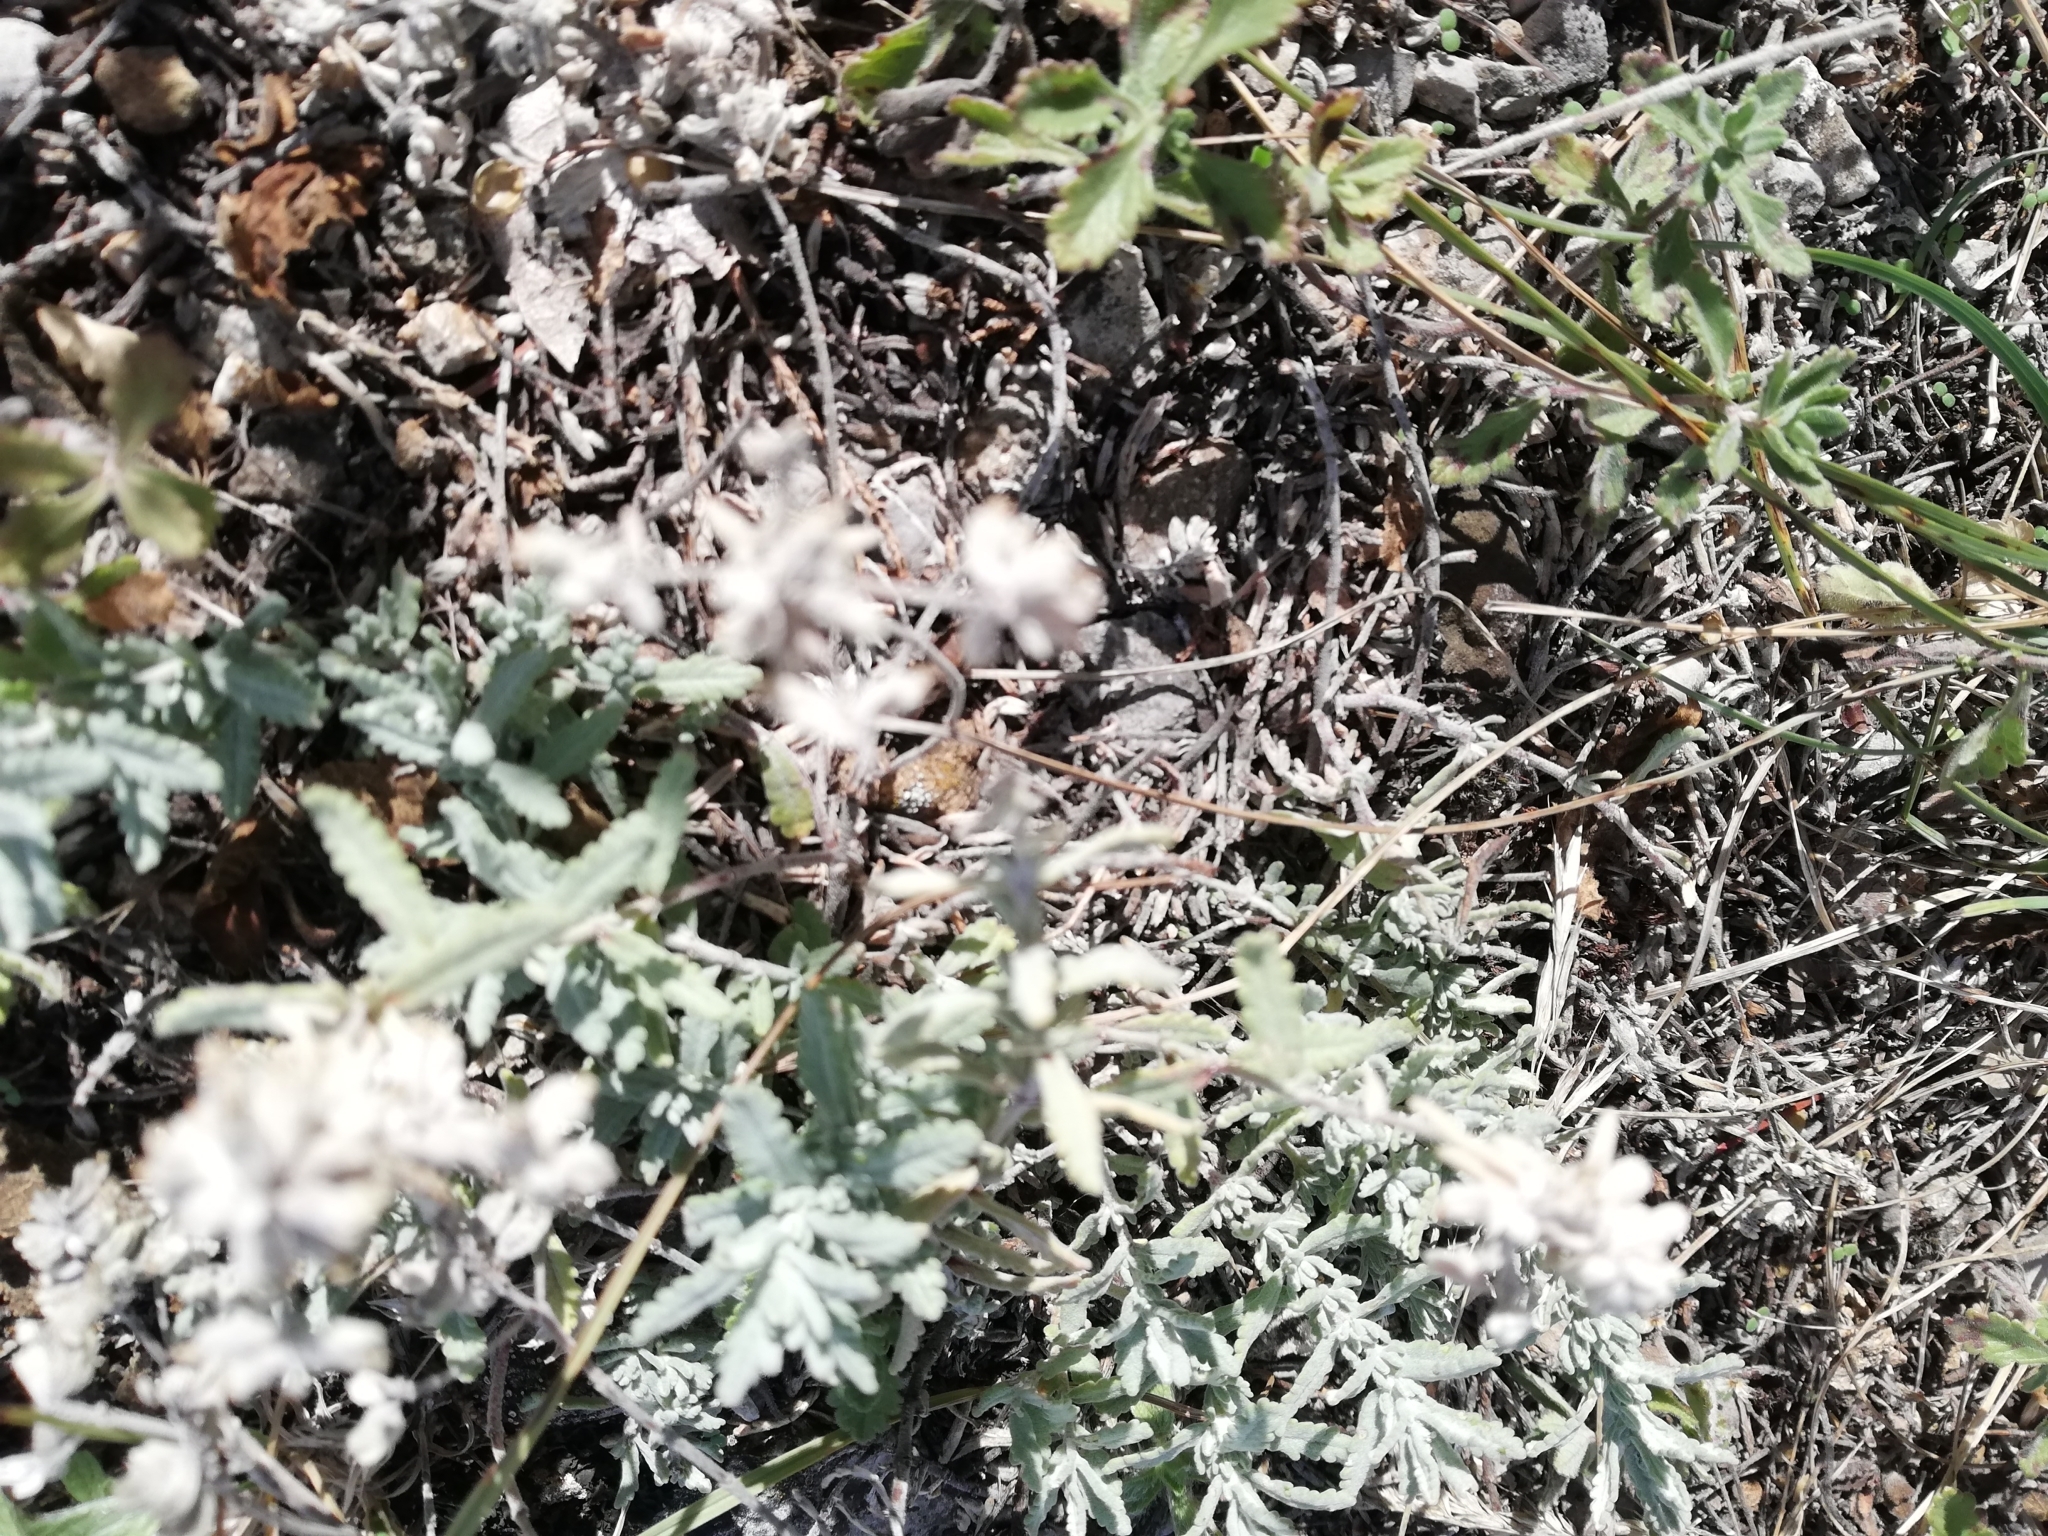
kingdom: Plantae
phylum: Tracheophyta
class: Magnoliopsida
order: Lamiales
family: Lamiaceae
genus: Teucrium
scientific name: Teucrium polium
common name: Poley
